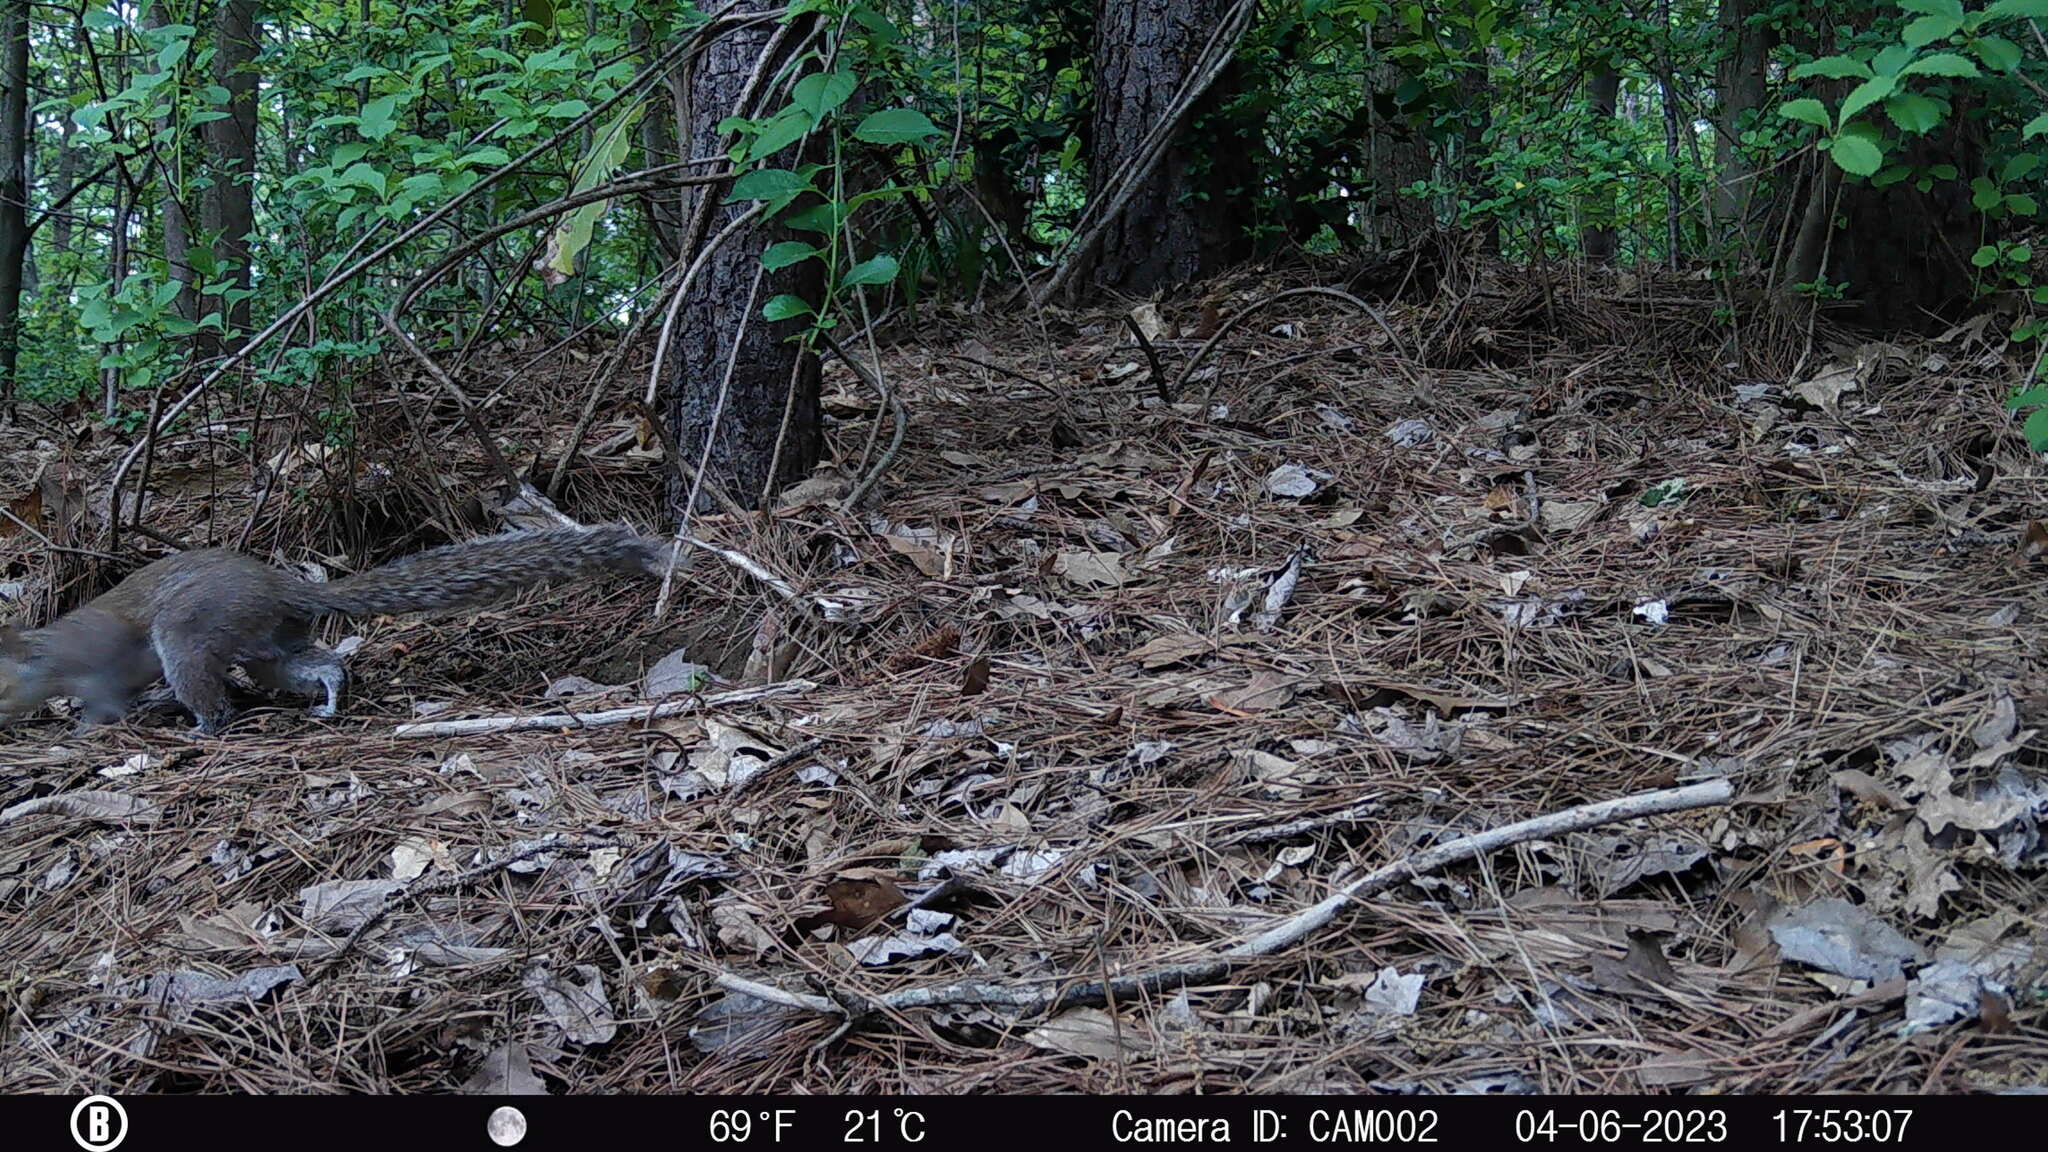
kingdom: Animalia
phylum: Chordata
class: Mammalia
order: Rodentia
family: Sciuridae
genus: Sciurus
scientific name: Sciurus carolinensis
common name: Eastern gray squirrel
